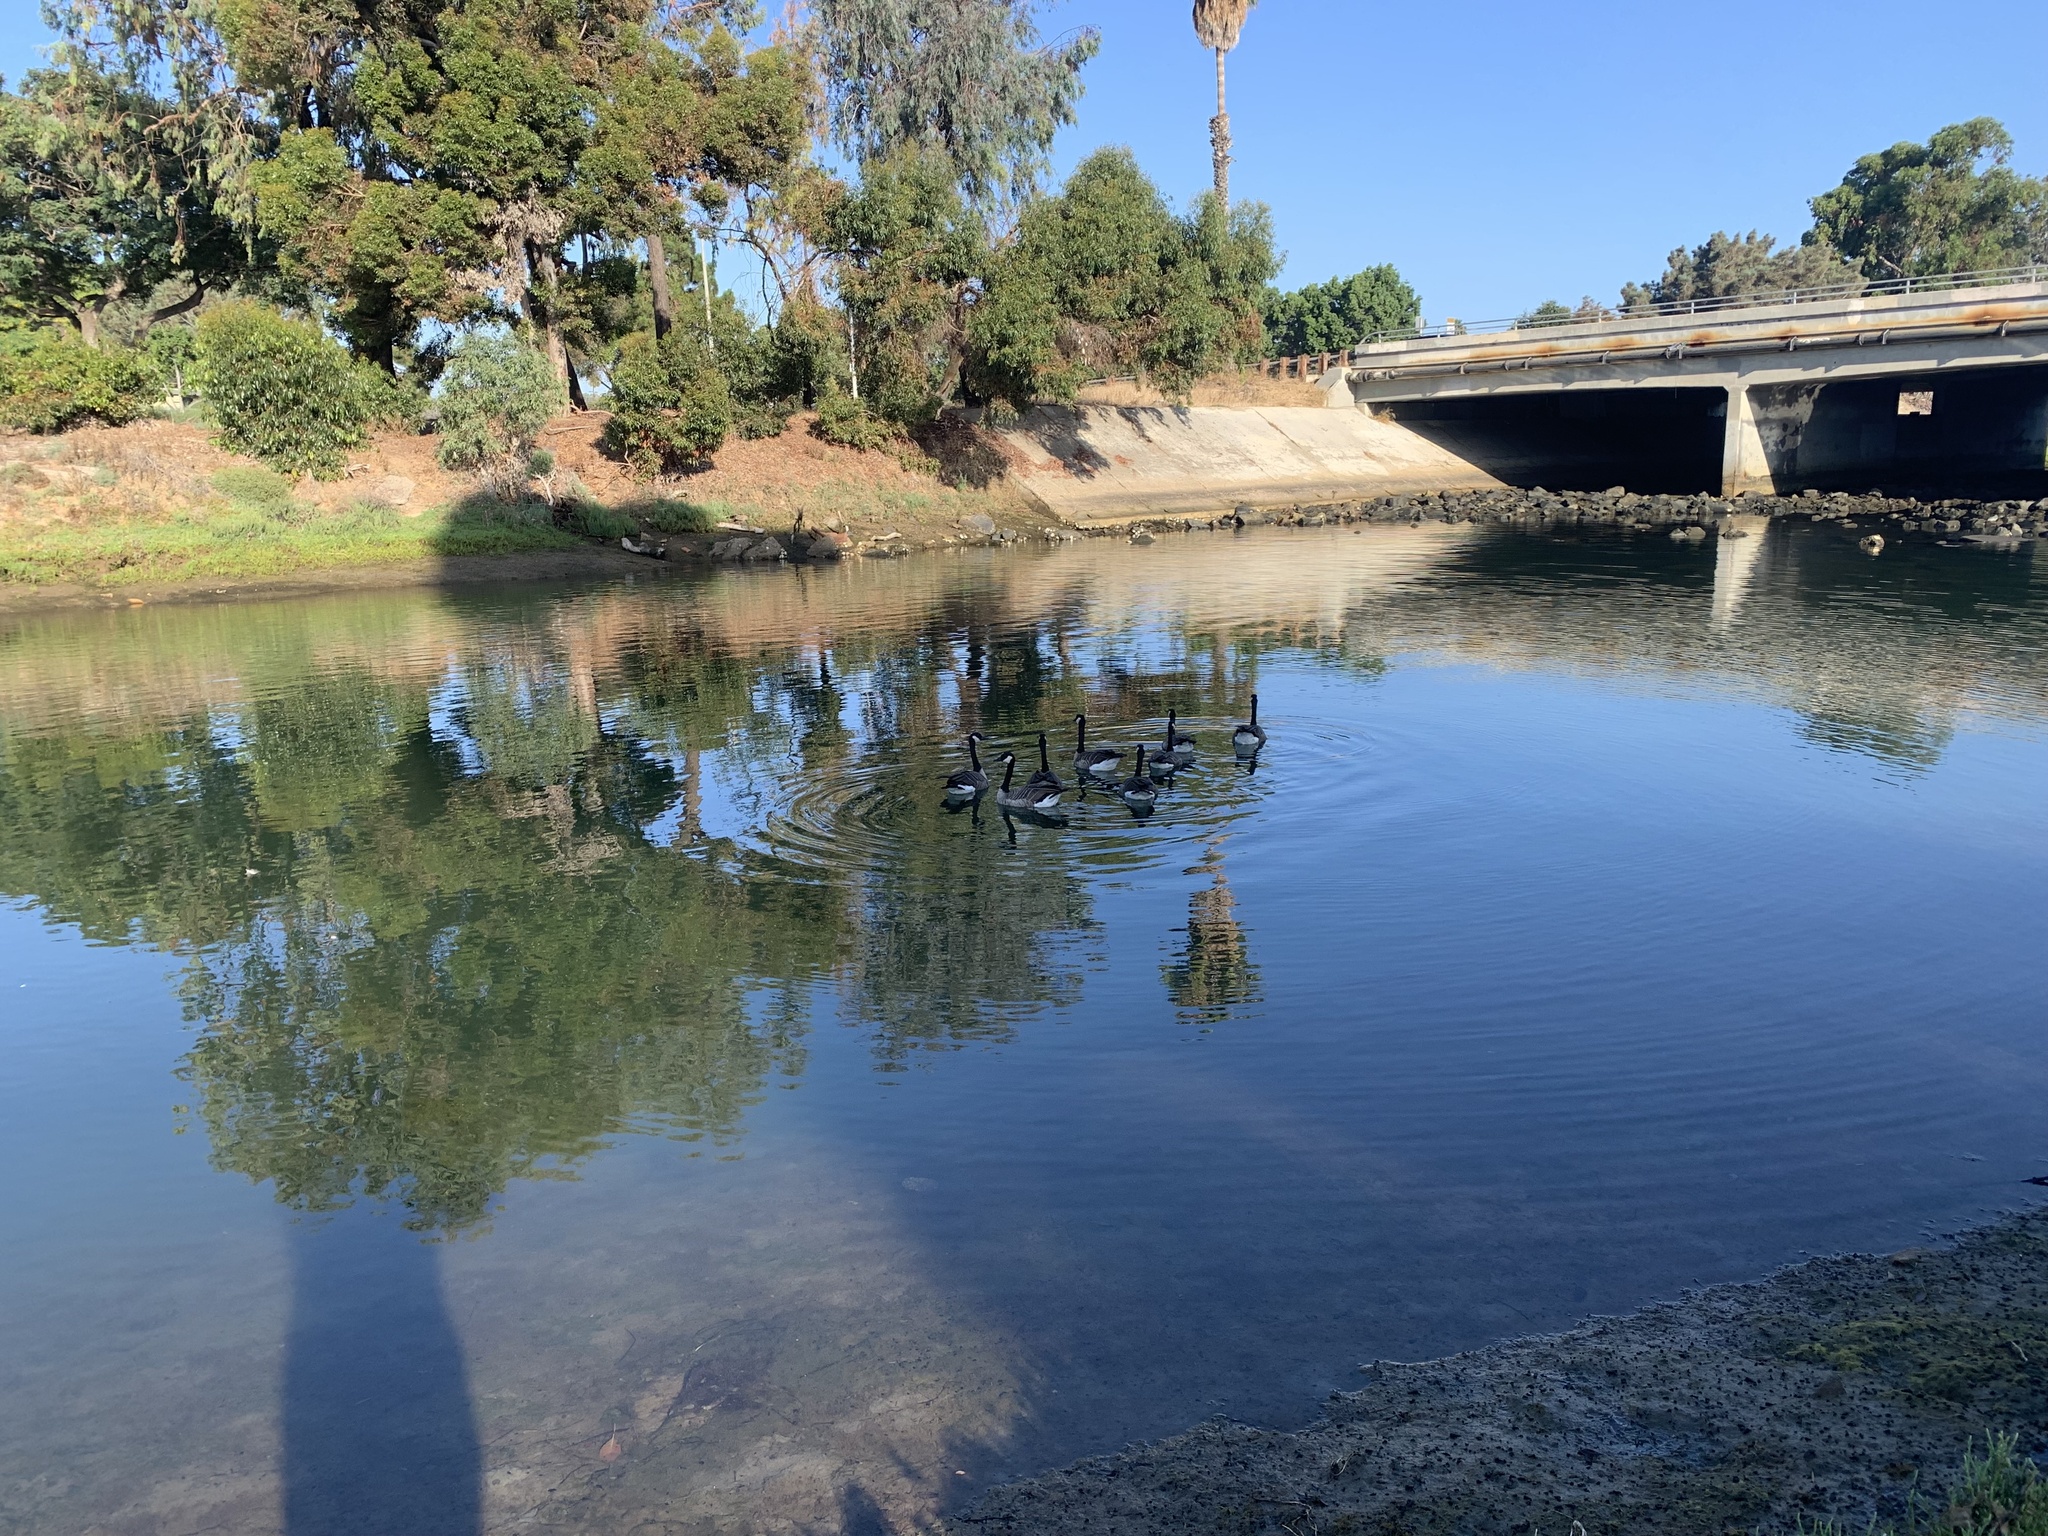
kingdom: Animalia
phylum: Chordata
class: Aves
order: Anseriformes
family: Anatidae
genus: Branta
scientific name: Branta canadensis
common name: Canada goose
